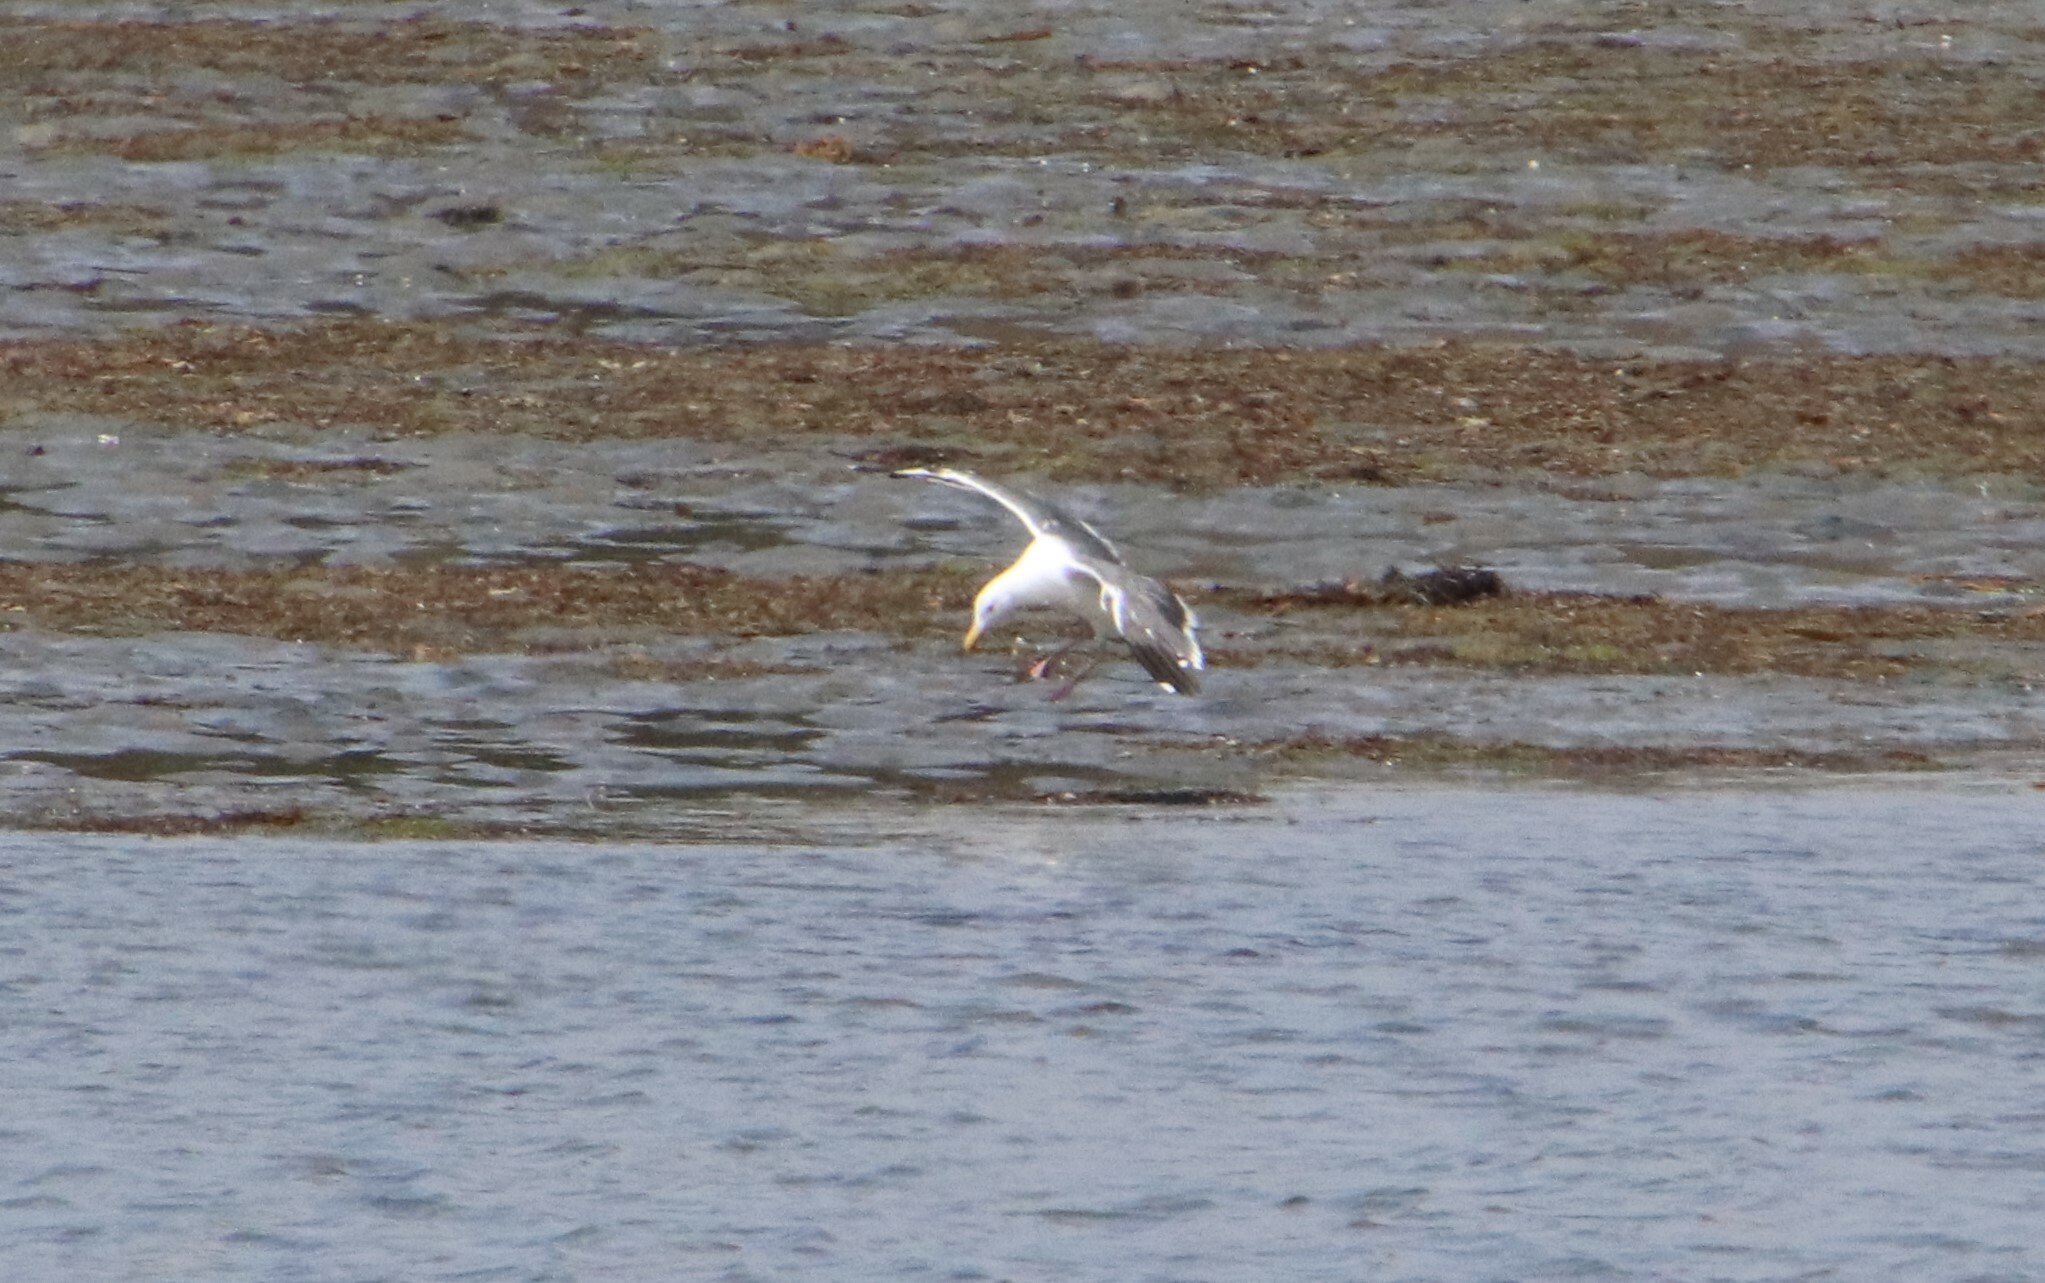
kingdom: Animalia
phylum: Chordata
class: Aves
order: Charadriiformes
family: Laridae
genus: Larus
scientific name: Larus occidentalis
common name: Western gull
